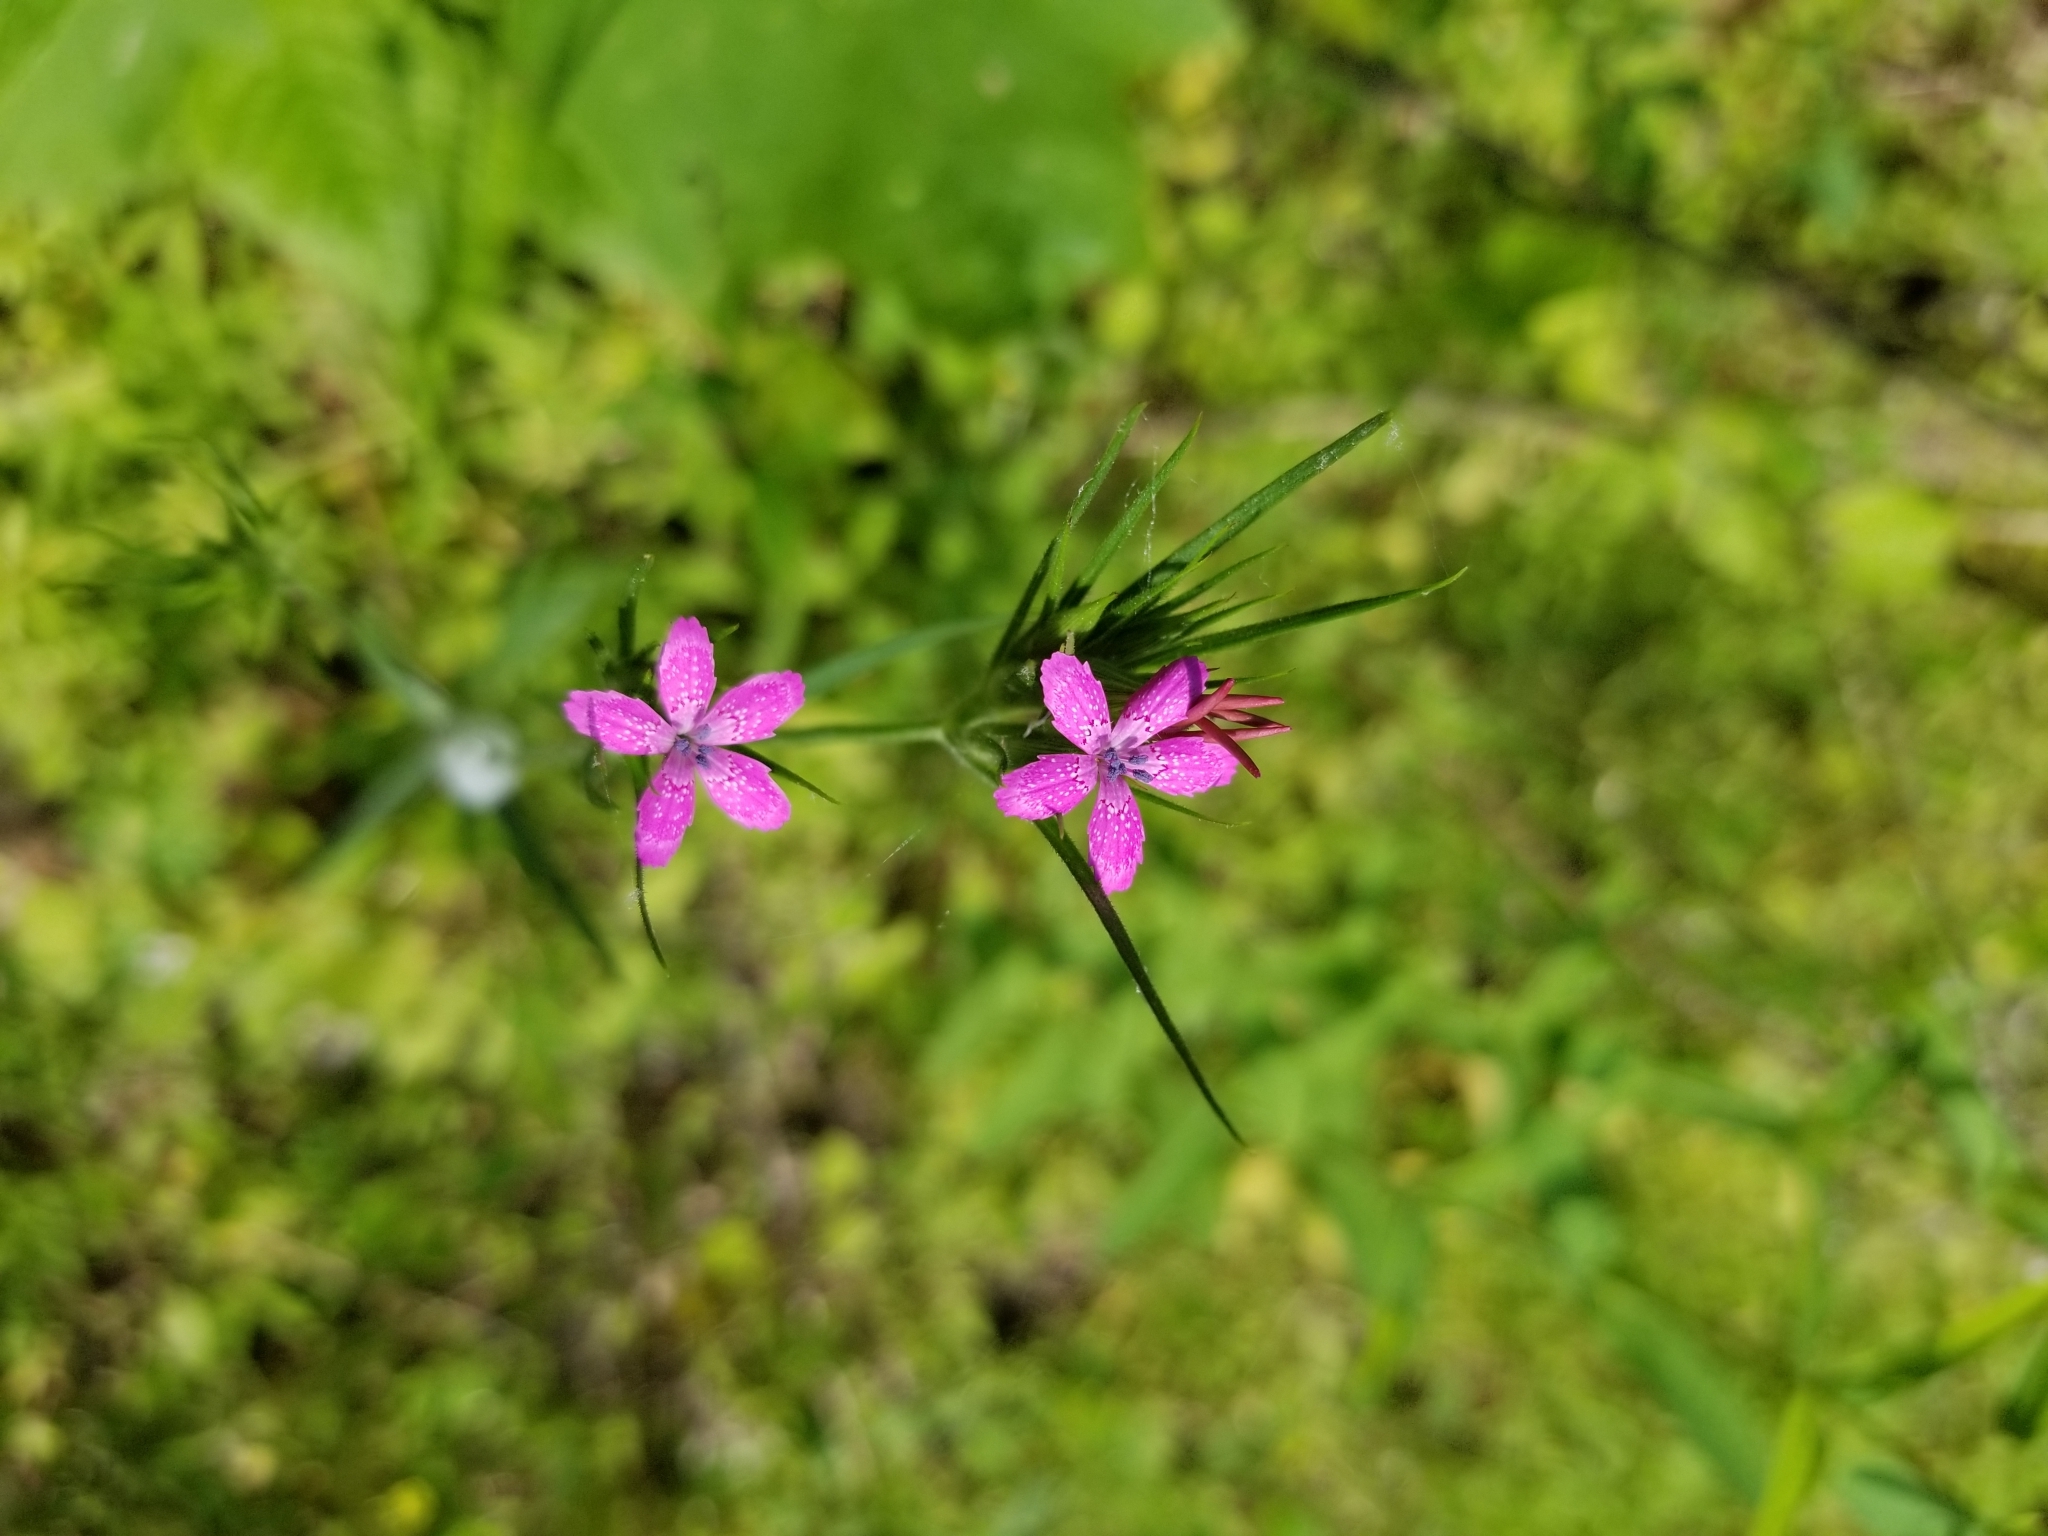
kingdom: Plantae
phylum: Tracheophyta
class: Magnoliopsida
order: Caryophyllales
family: Caryophyllaceae
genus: Dianthus
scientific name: Dianthus armeria
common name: Deptford pink
